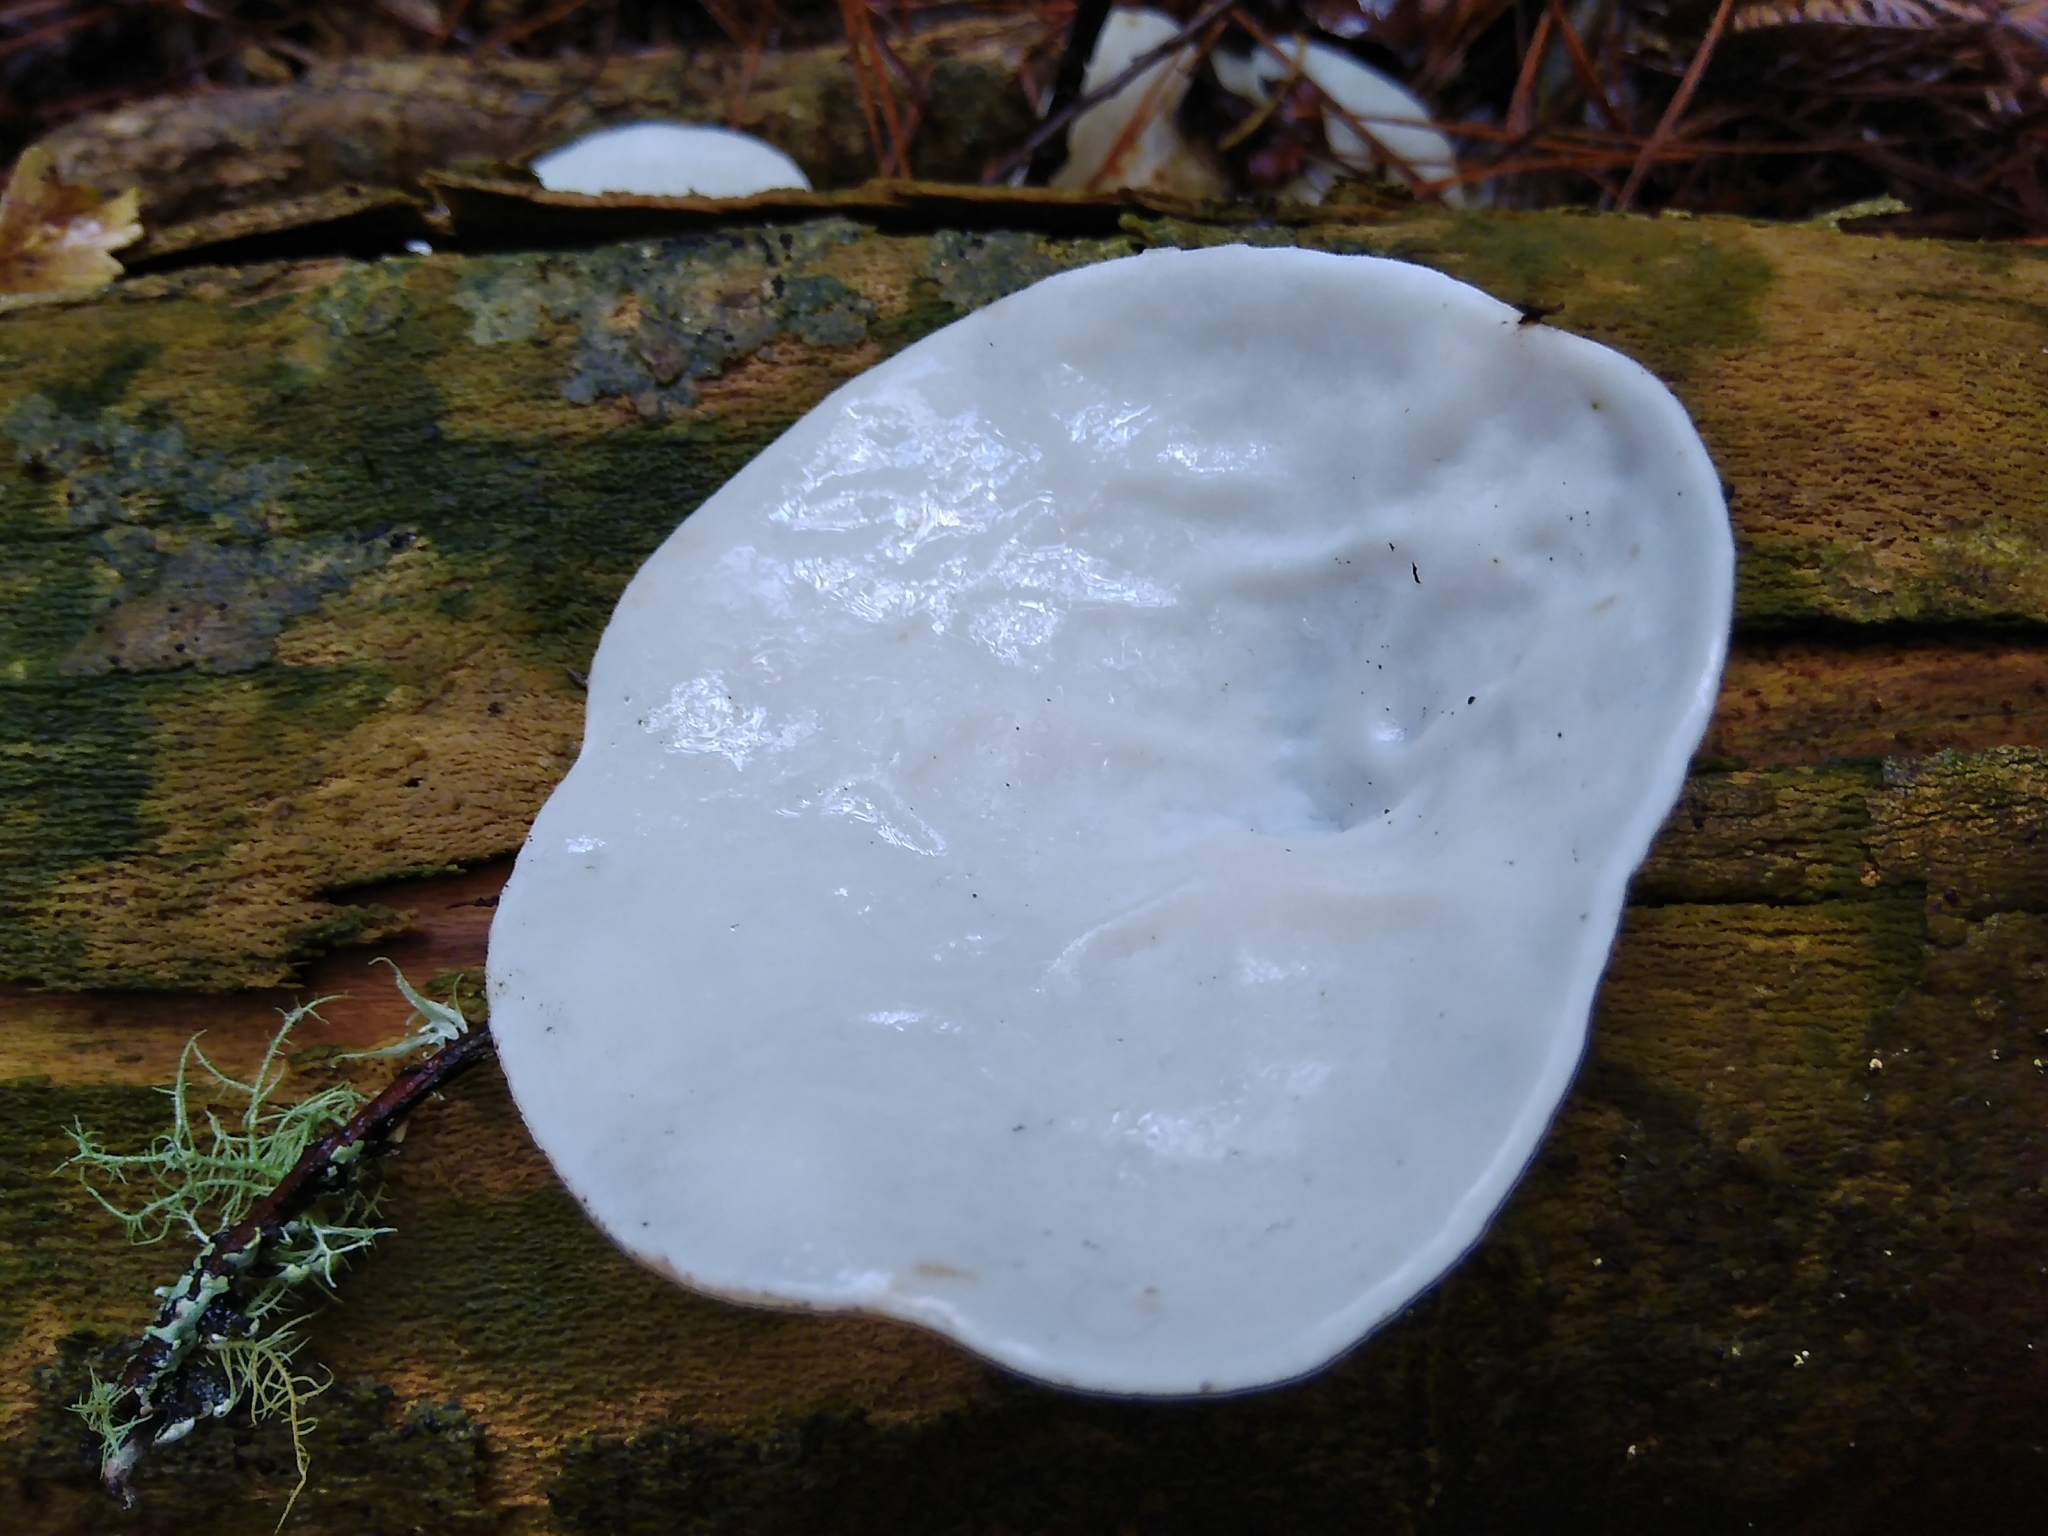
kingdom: Fungi
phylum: Basidiomycota
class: Agaricomycetes
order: Auriculariales
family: Auriculariaceae
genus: Auricularia
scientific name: Auricularia cornea
